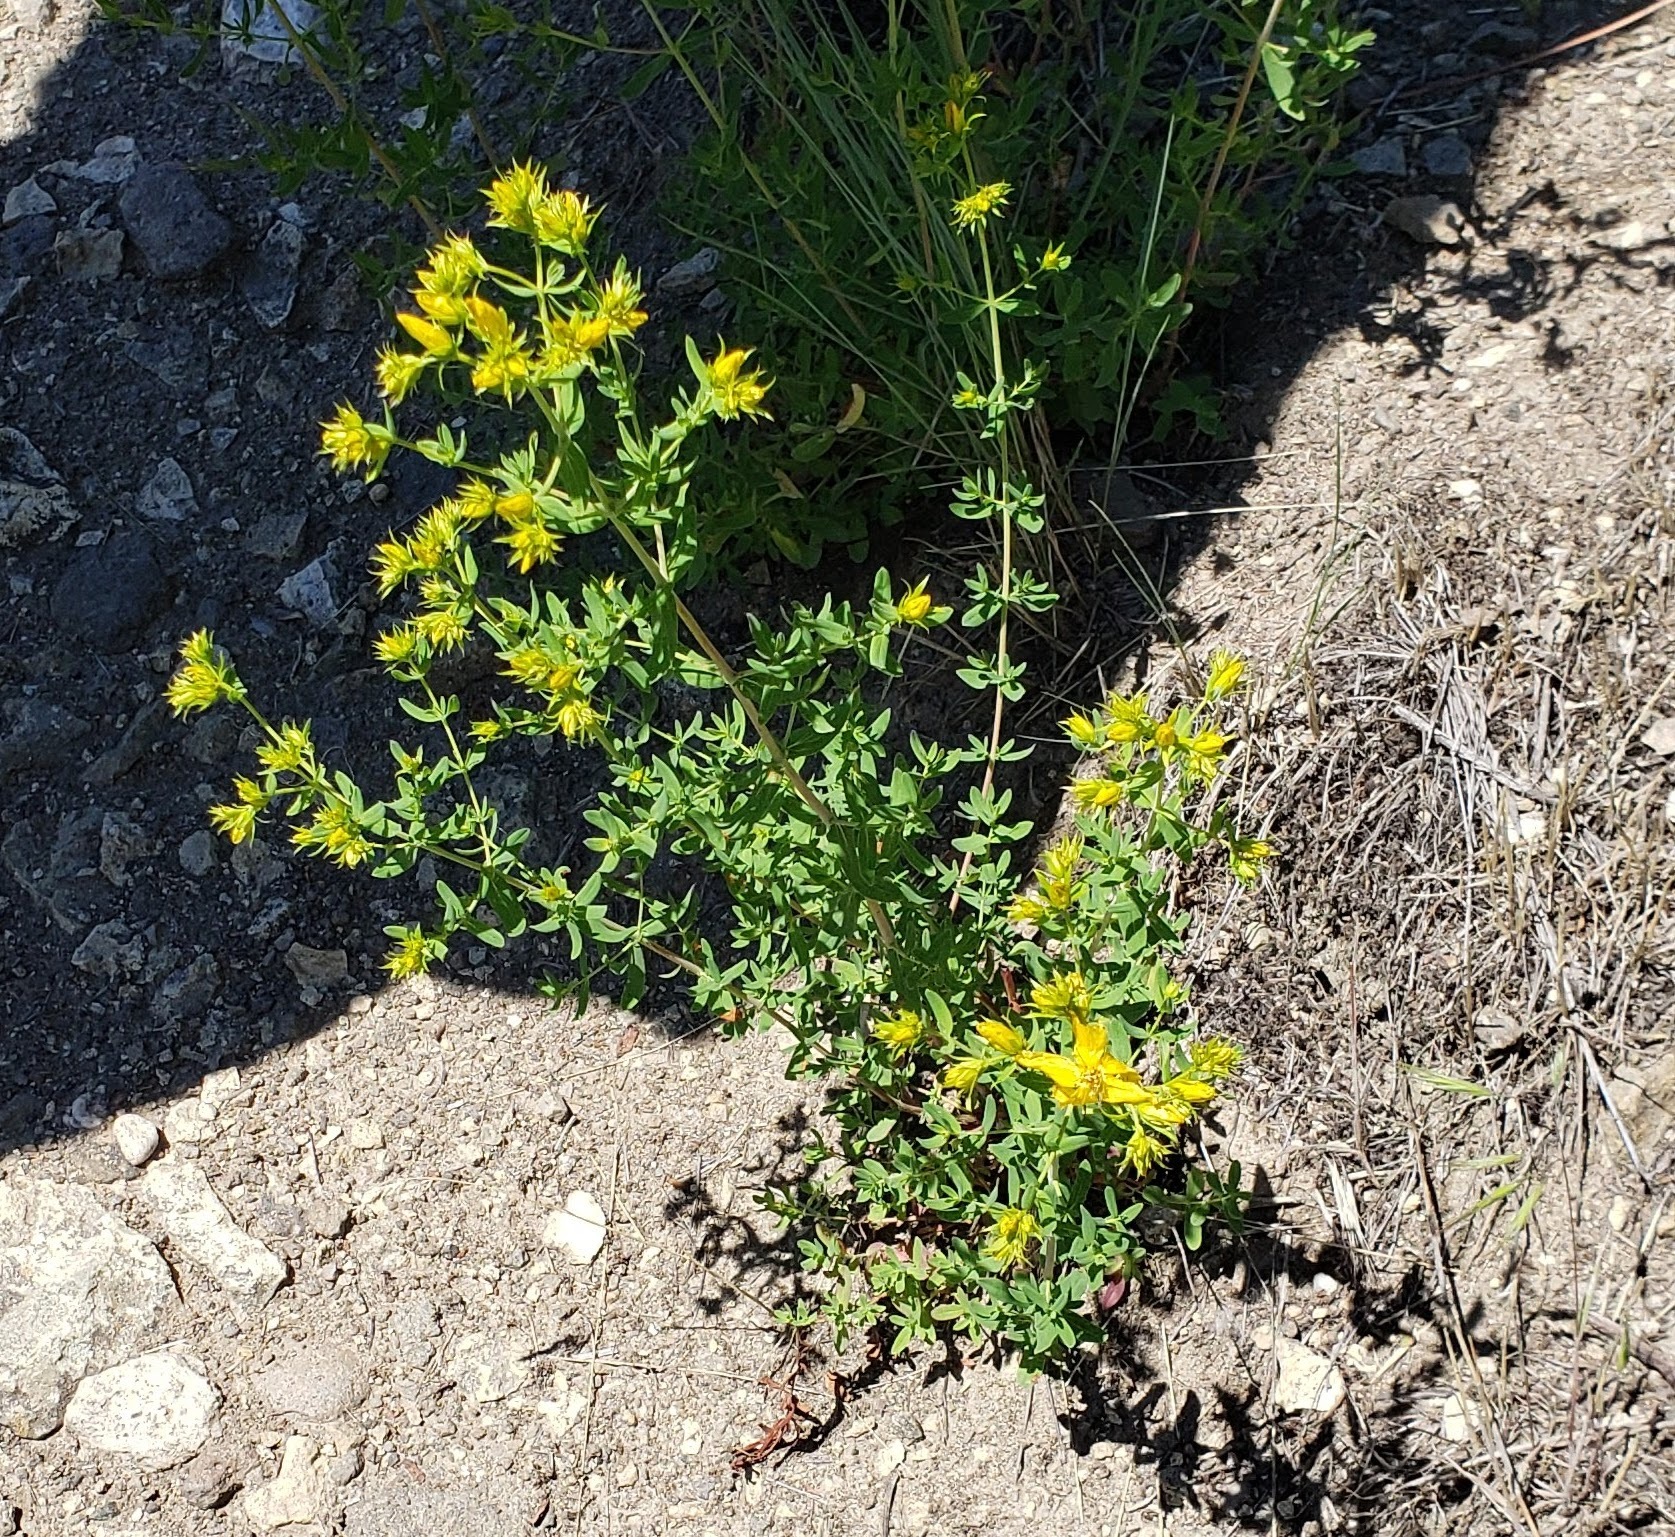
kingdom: Plantae
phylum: Tracheophyta
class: Magnoliopsida
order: Malpighiales
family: Hypericaceae
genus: Hypericum
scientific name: Hypericum perforatum
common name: Common st. johnswort
